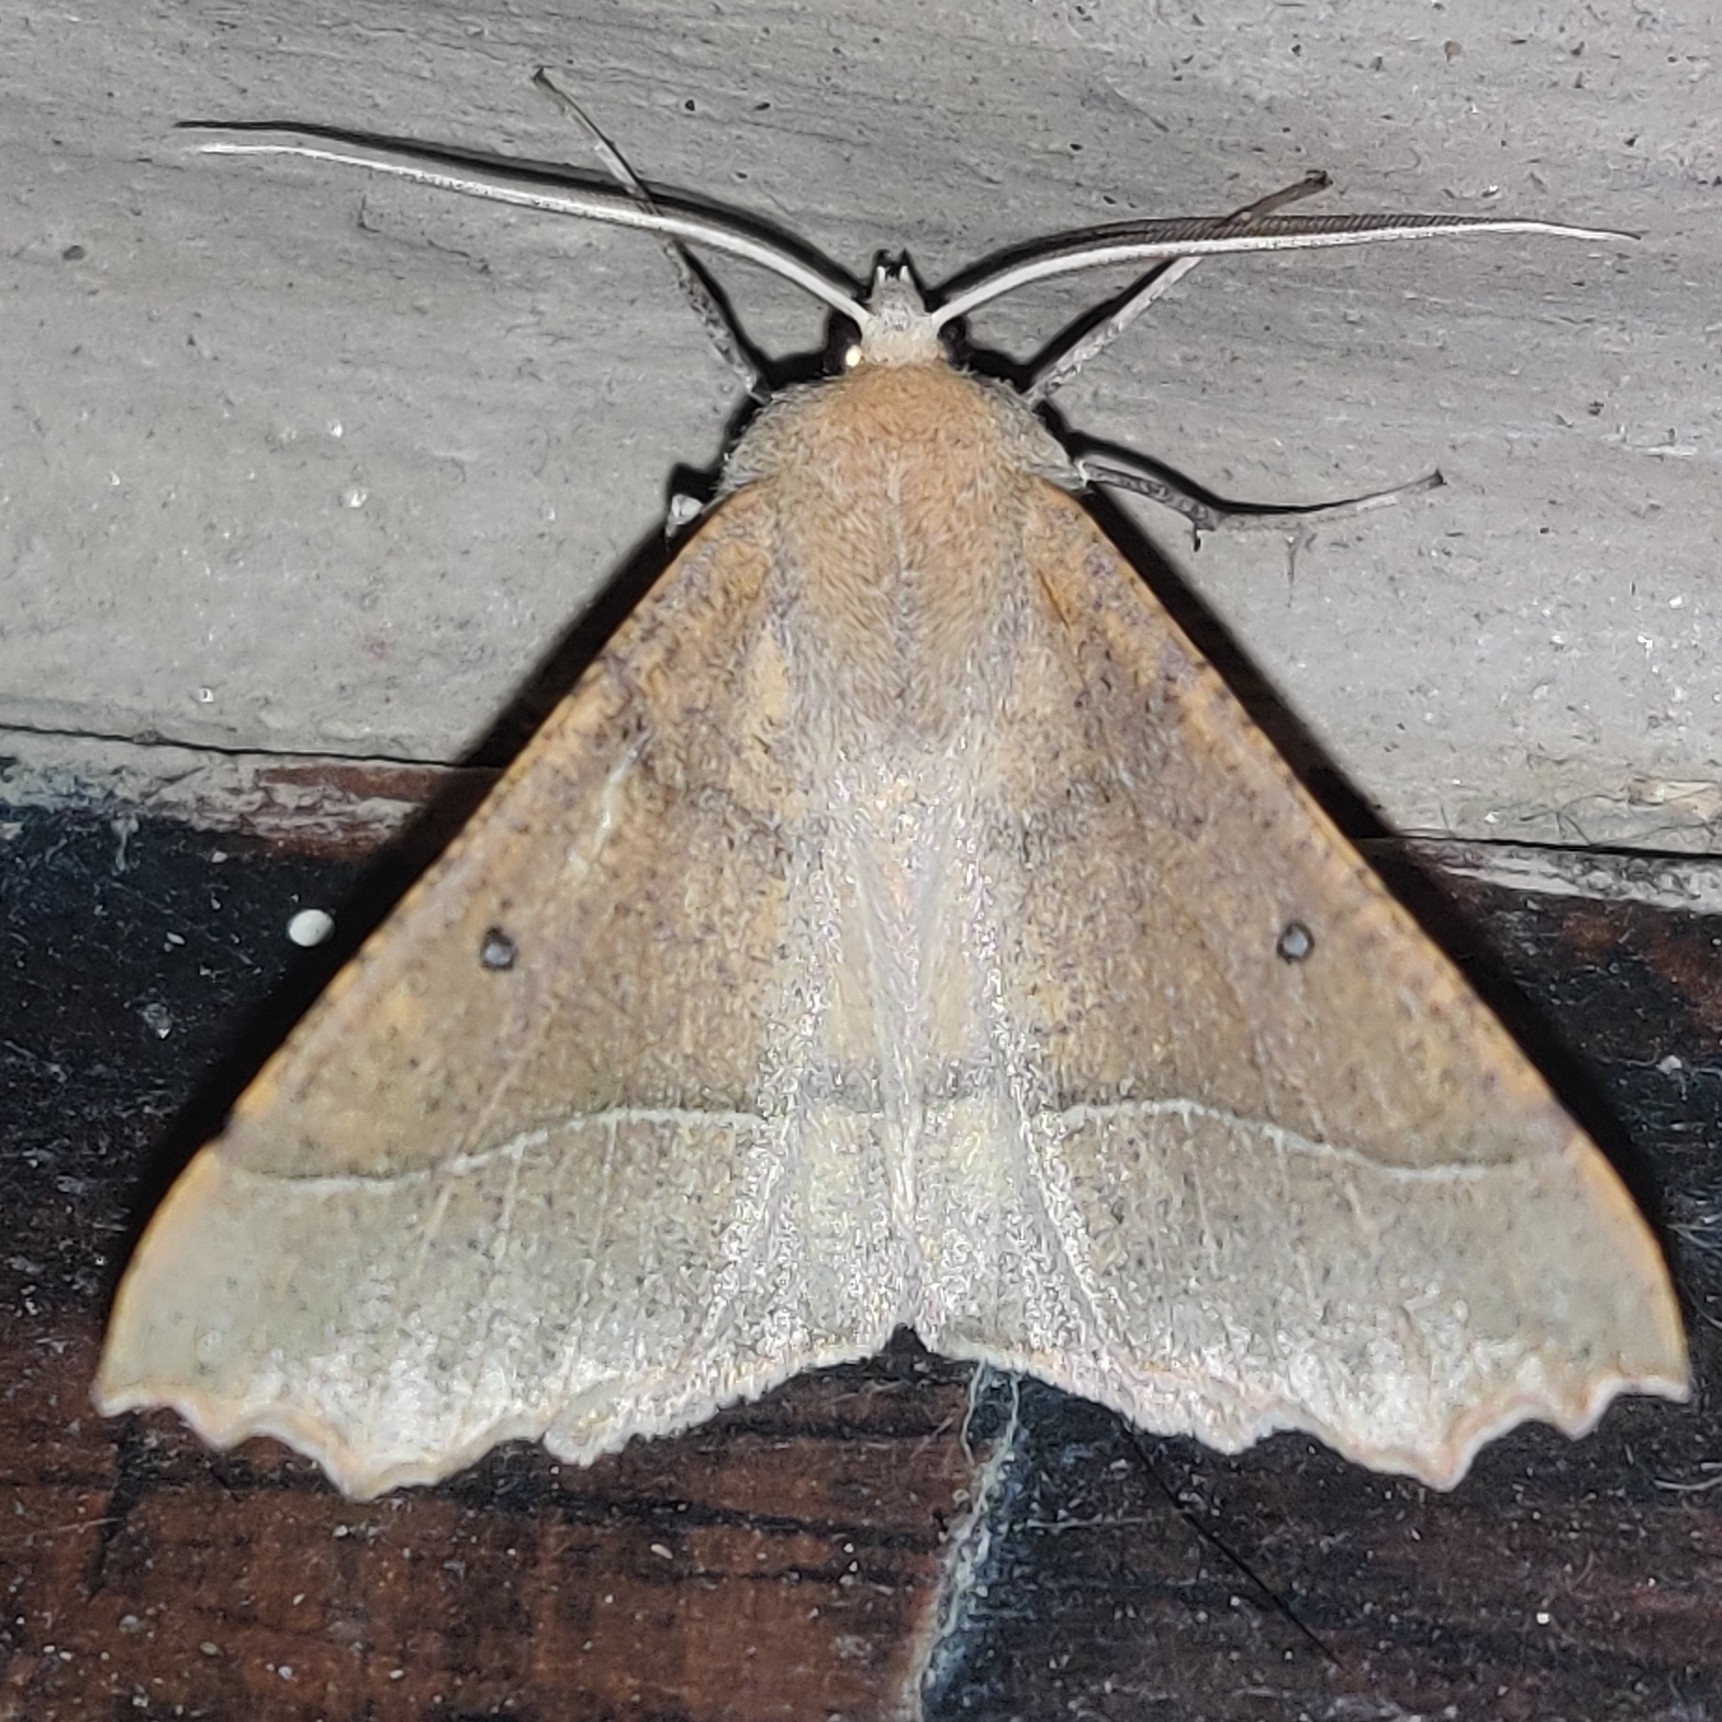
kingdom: Animalia
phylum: Arthropoda
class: Insecta
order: Lepidoptera
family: Geometridae
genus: Odontopera
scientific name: Odontopera justa
